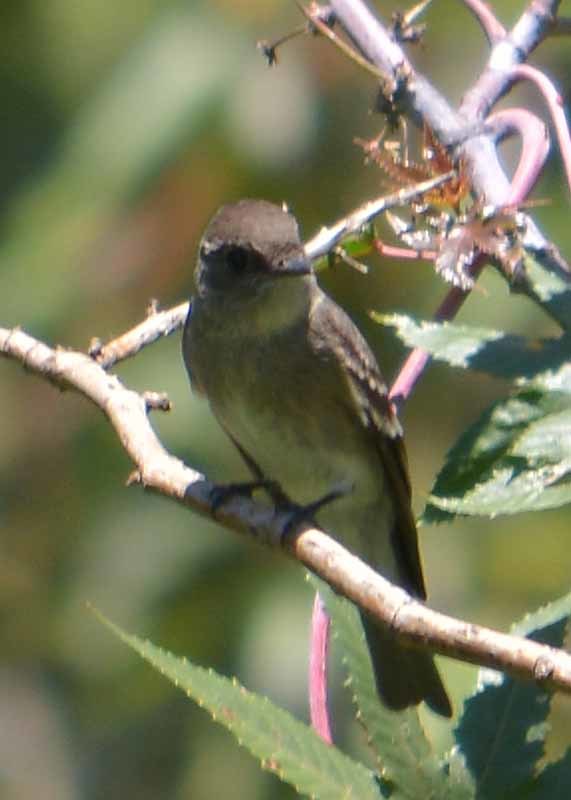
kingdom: Animalia
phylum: Chordata
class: Aves
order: Passeriformes
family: Tyrannidae
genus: Contopus
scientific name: Contopus sordidulus
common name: Western wood-pewee
